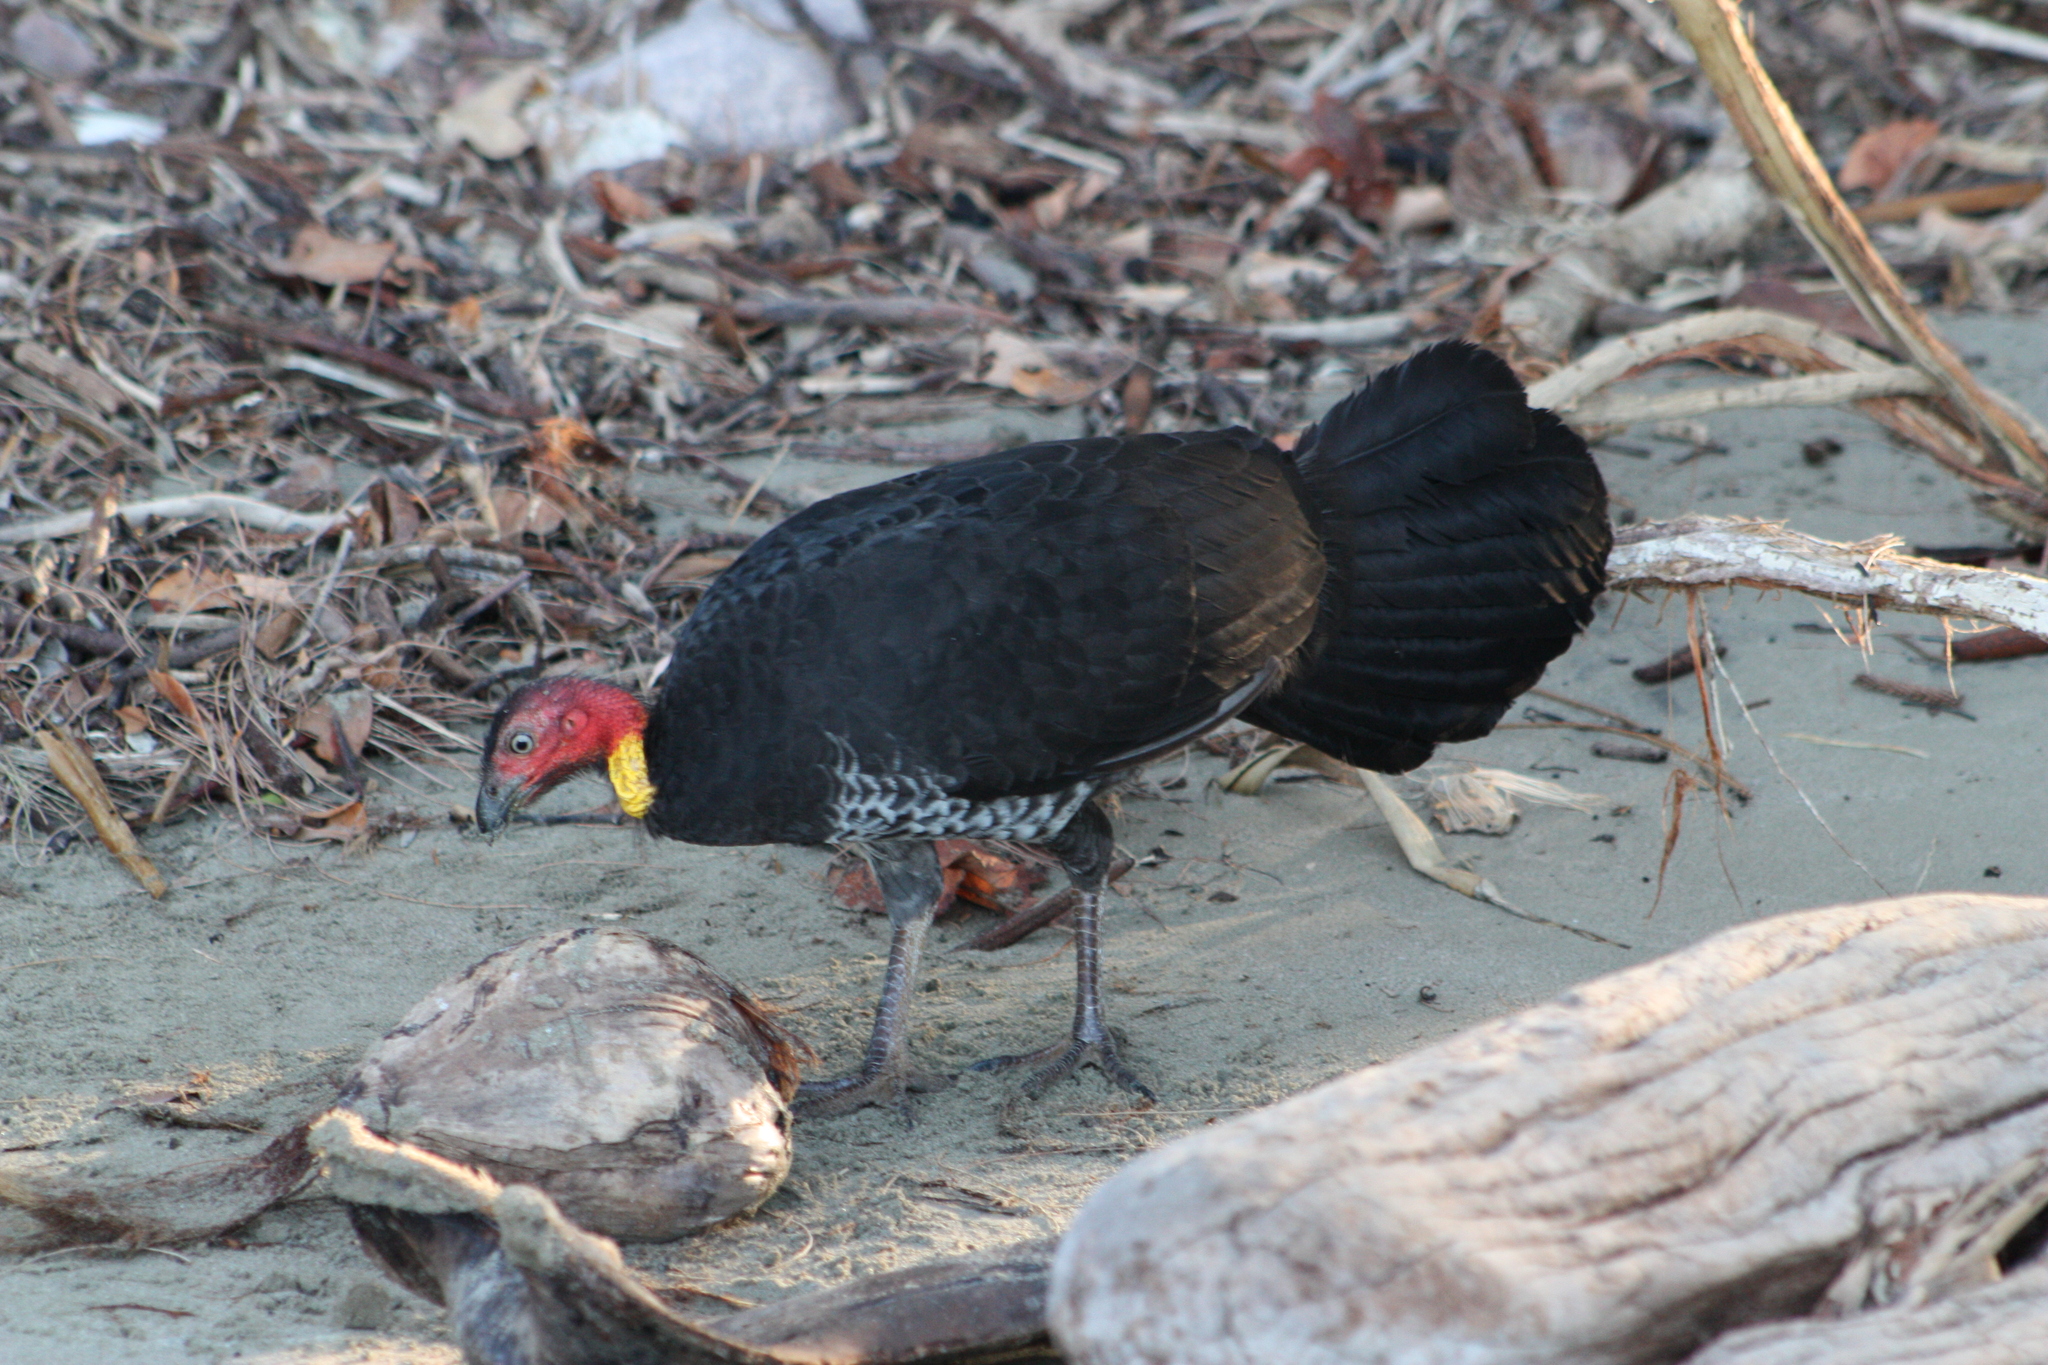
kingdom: Animalia
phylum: Chordata
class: Aves
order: Galliformes
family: Megapodiidae
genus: Alectura
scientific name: Alectura lathami
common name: Australian brushturkey
